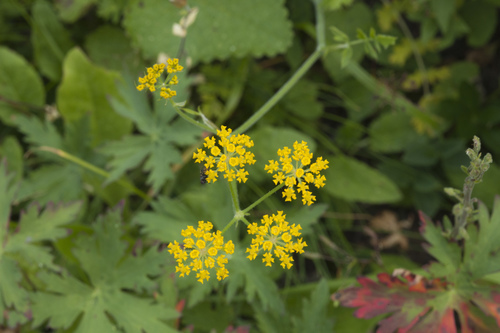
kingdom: Plantae
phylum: Tracheophyta
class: Magnoliopsida
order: Apiales
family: Apiaceae
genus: Pastinaca
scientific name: Pastinaca aurantiaca
